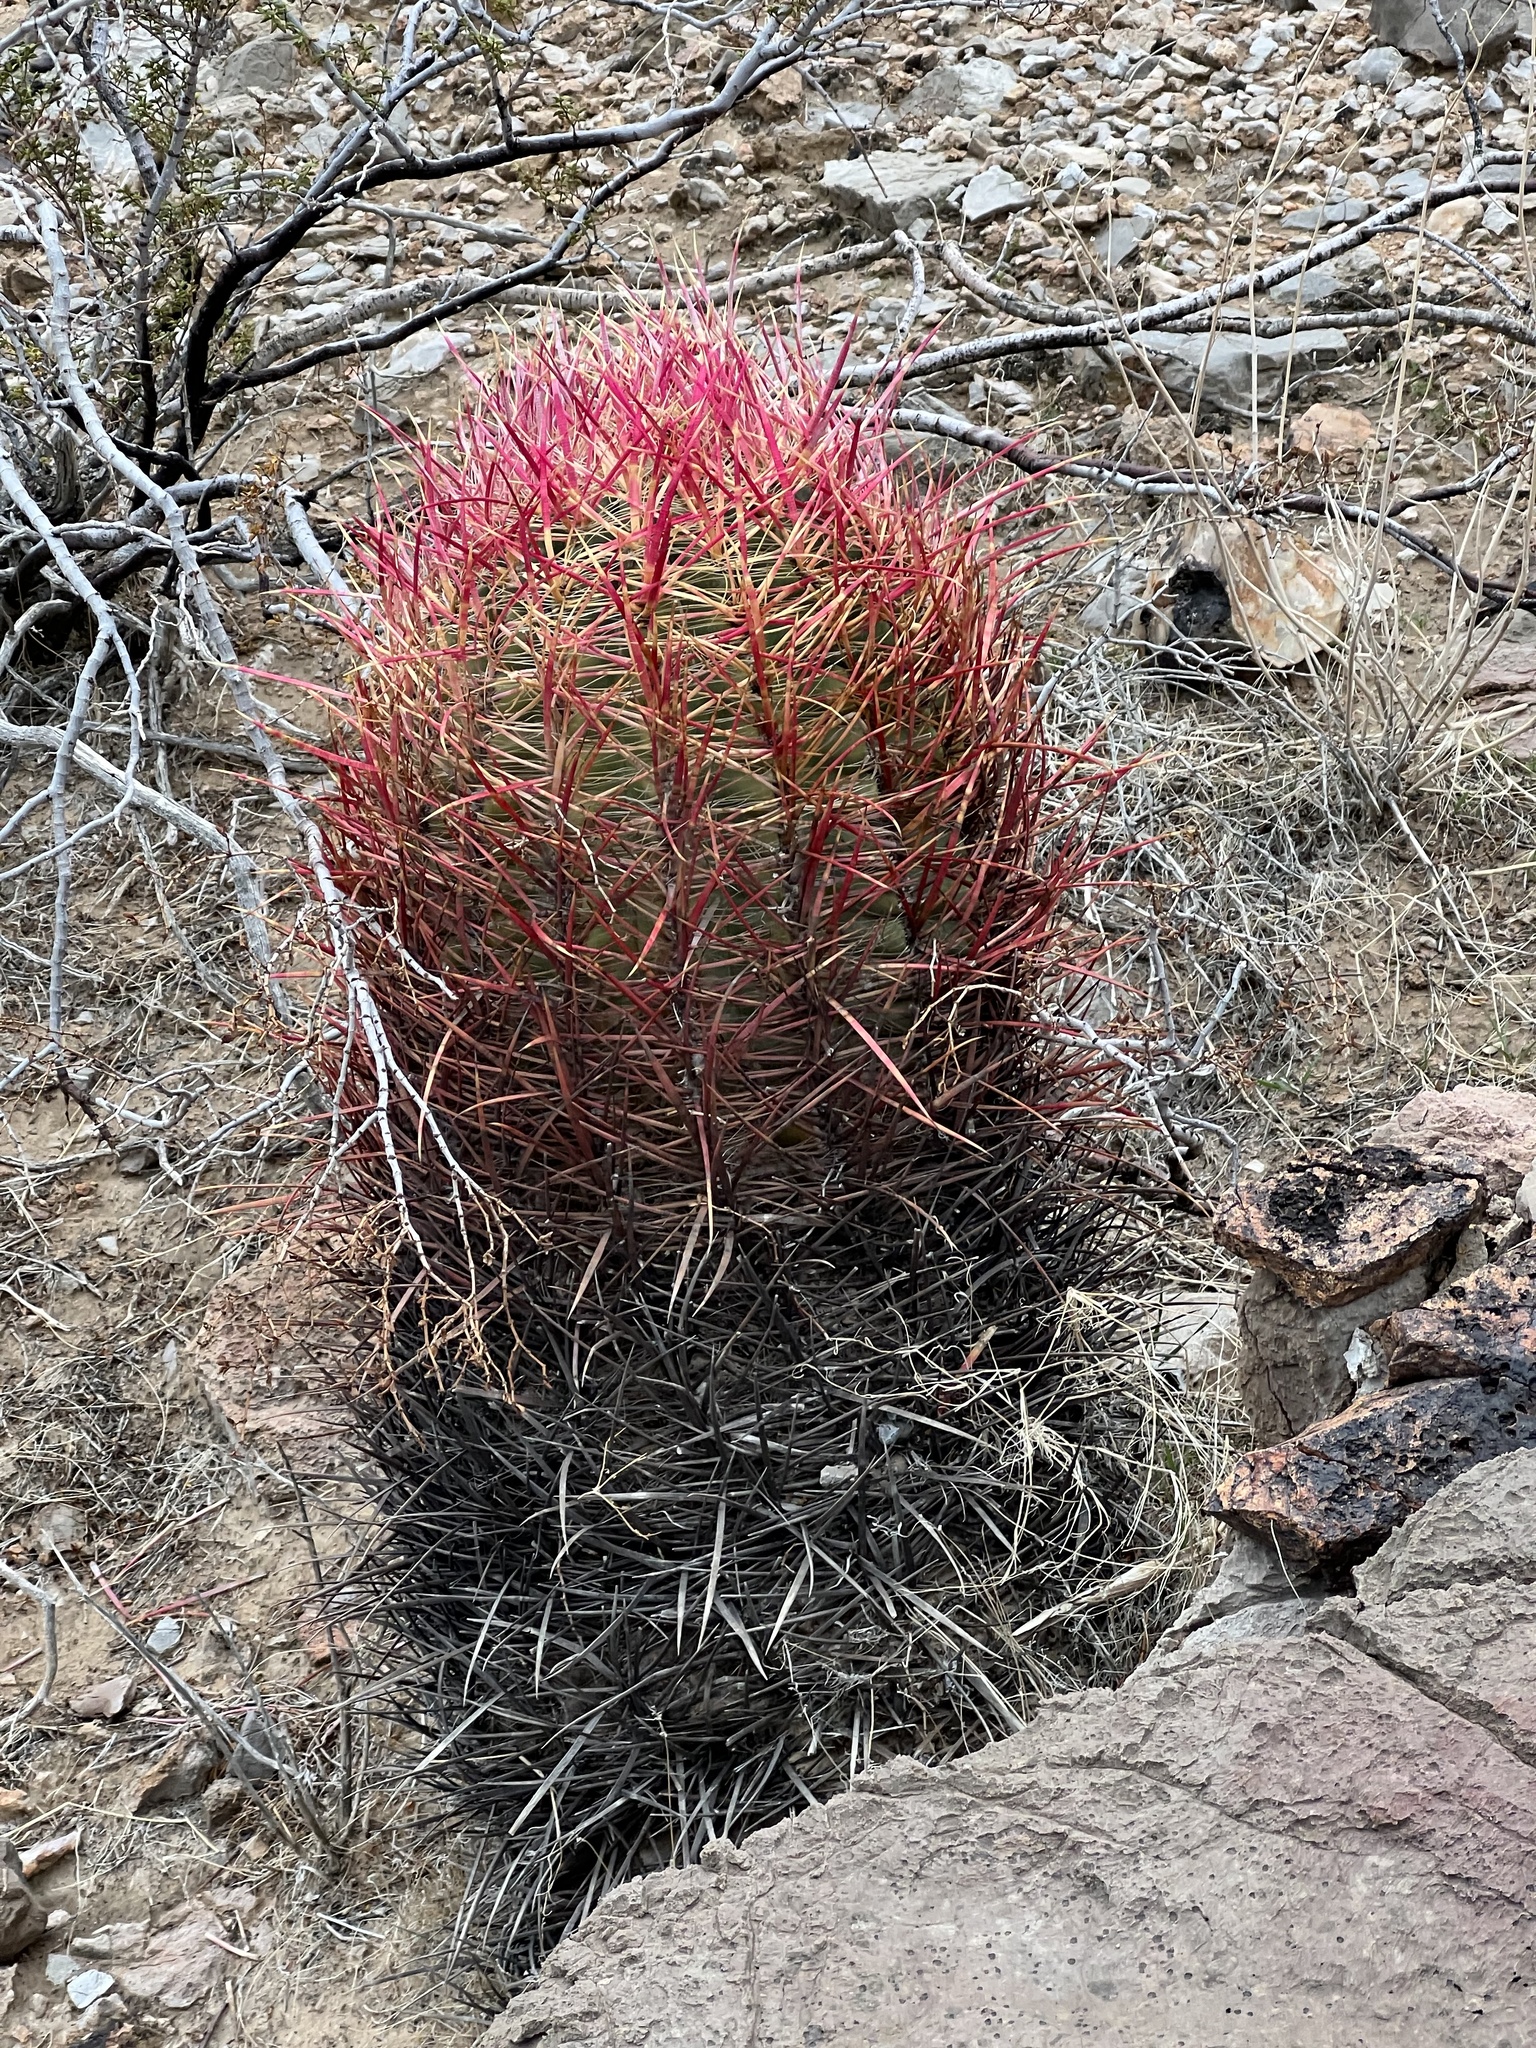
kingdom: Plantae
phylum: Tracheophyta
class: Magnoliopsida
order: Caryophyllales
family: Cactaceae
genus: Ferocactus
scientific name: Ferocactus cylindraceus
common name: California barrel cactus
